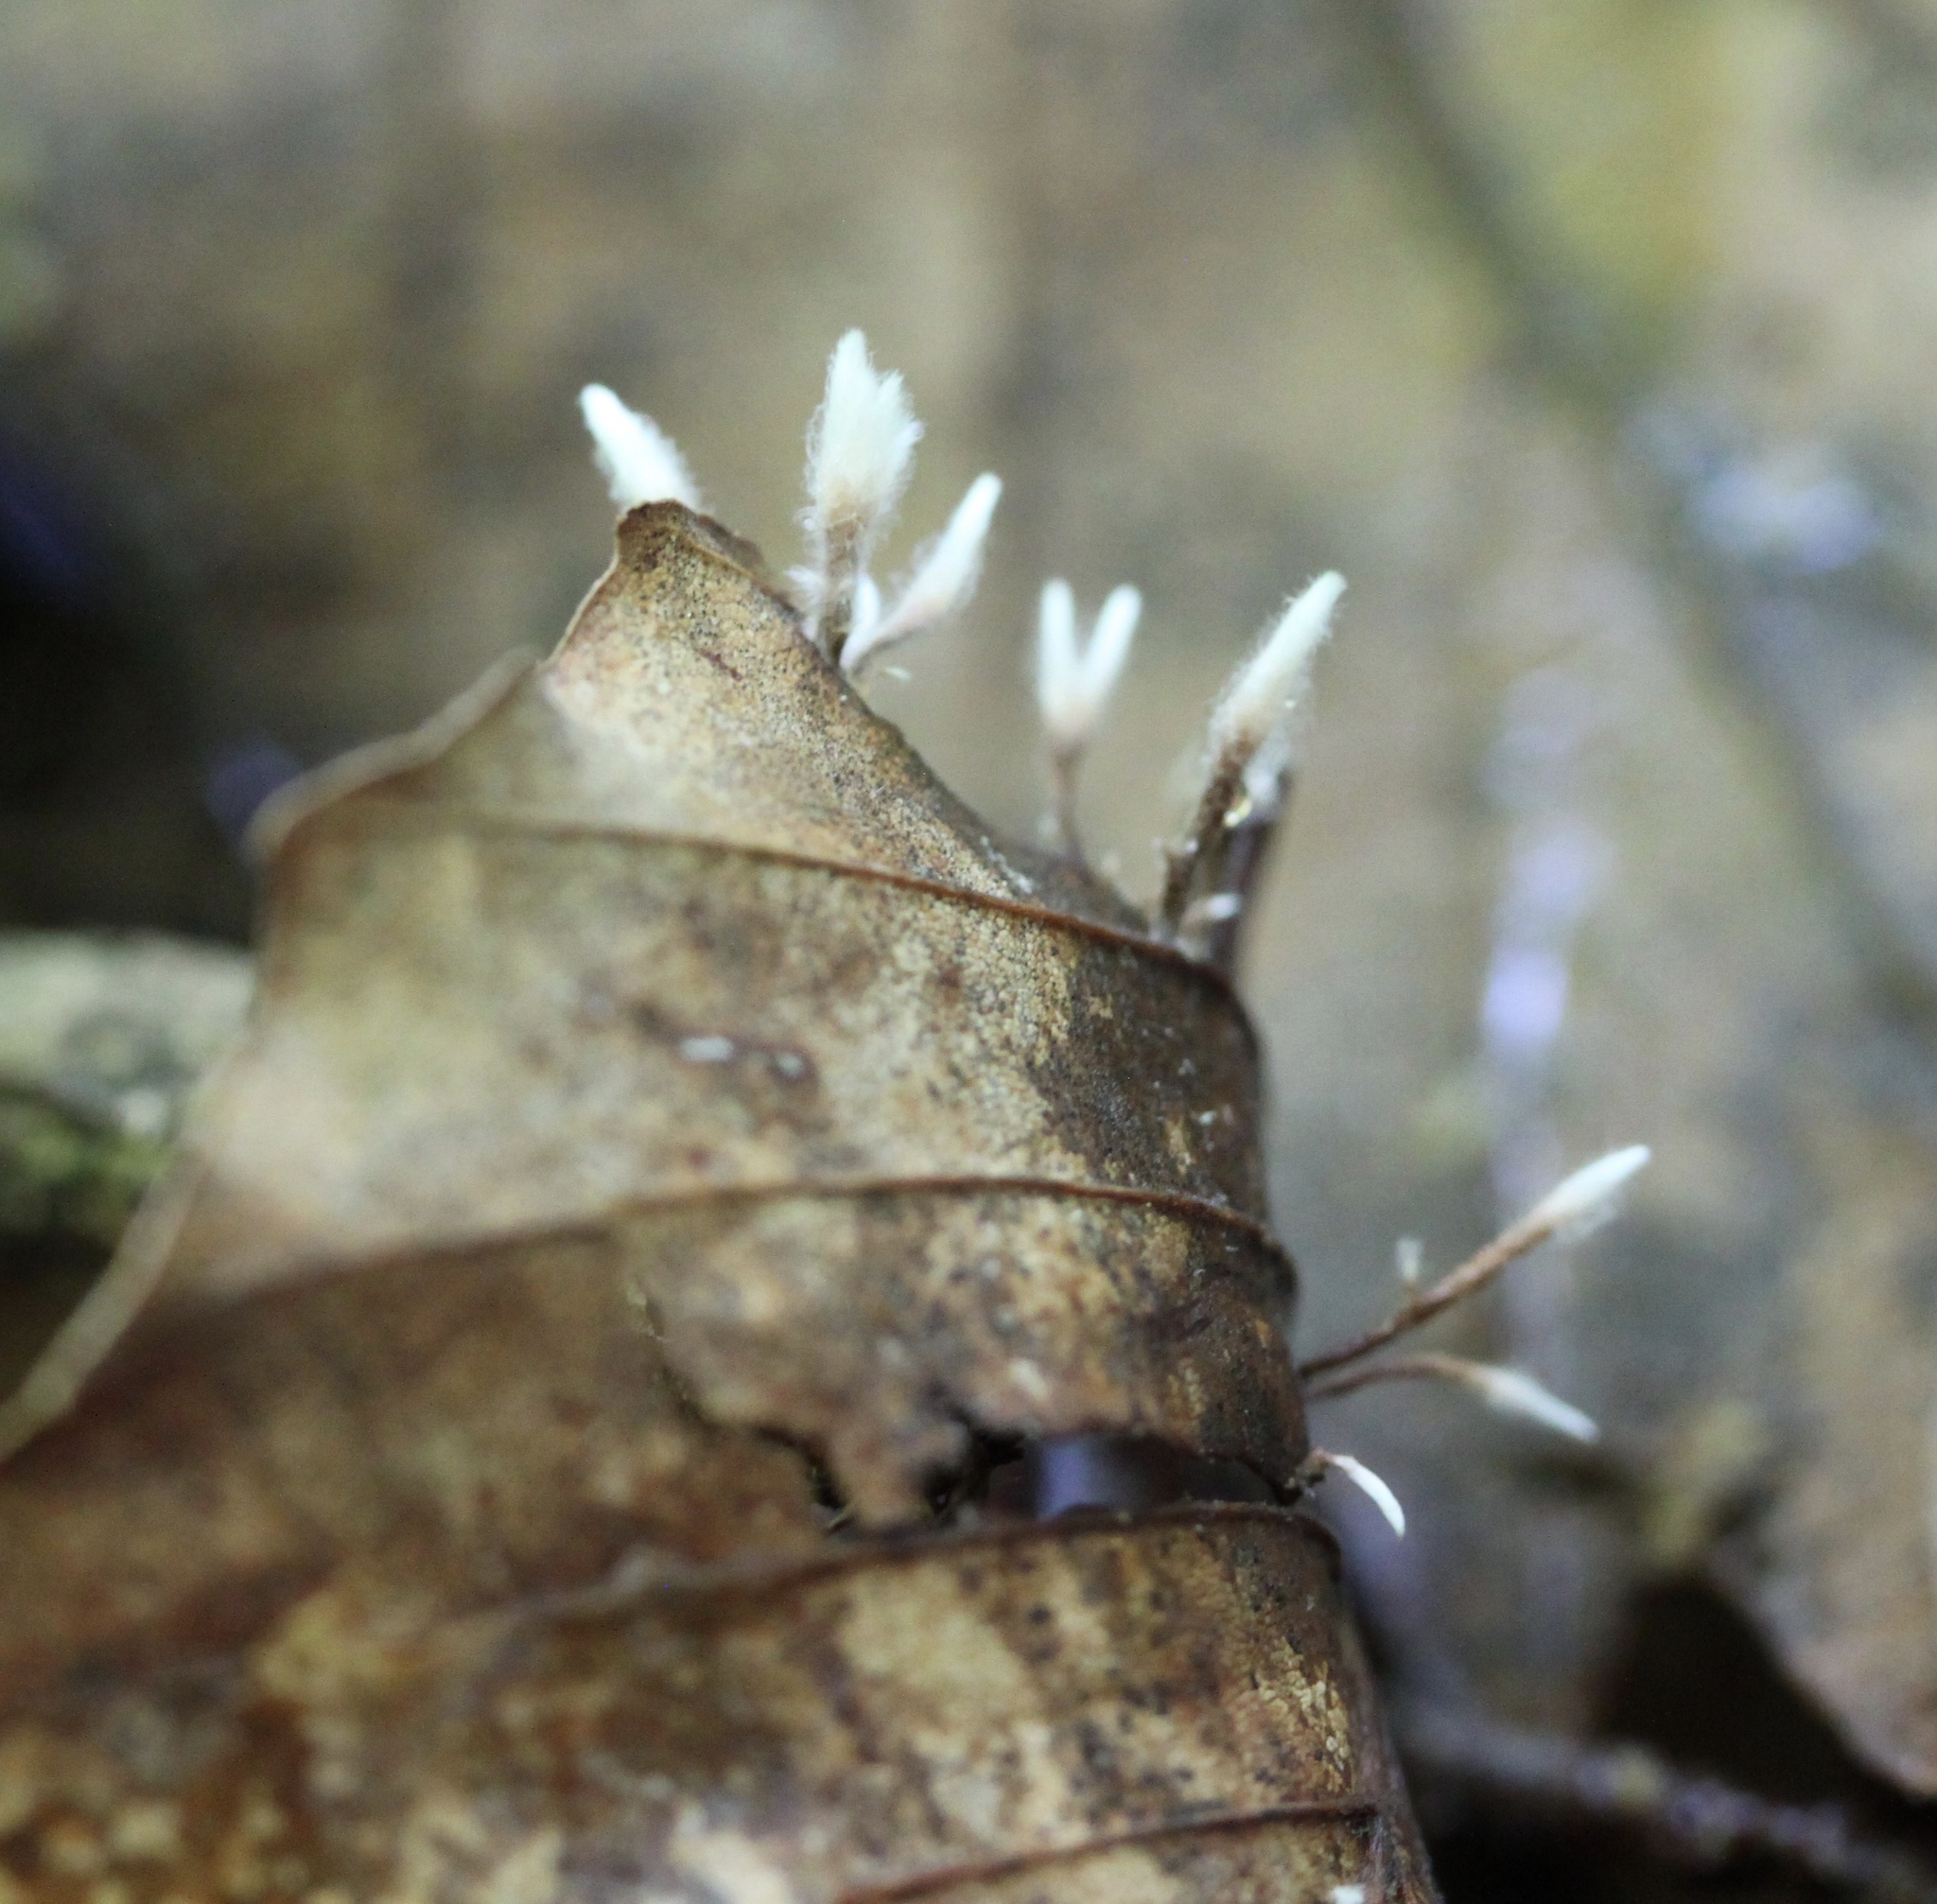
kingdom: Fungi
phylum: Ascomycota
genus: Anthina
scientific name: Anthina flammea
